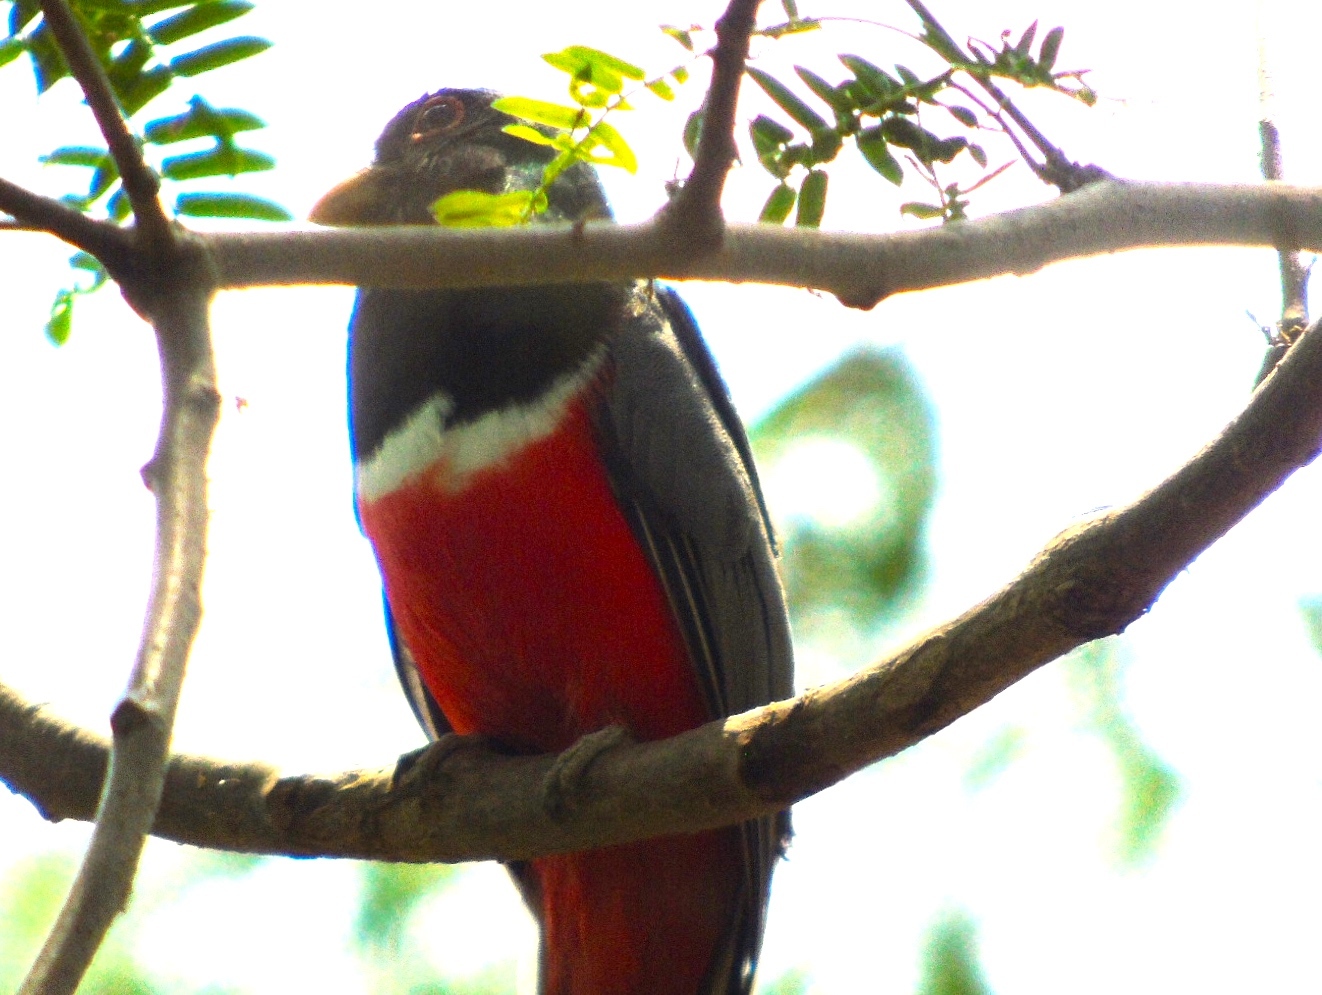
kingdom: Animalia
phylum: Chordata
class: Aves
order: Trogoniformes
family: Trogonidae
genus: Trogon
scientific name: Trogon elegans
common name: Elegant trogon
